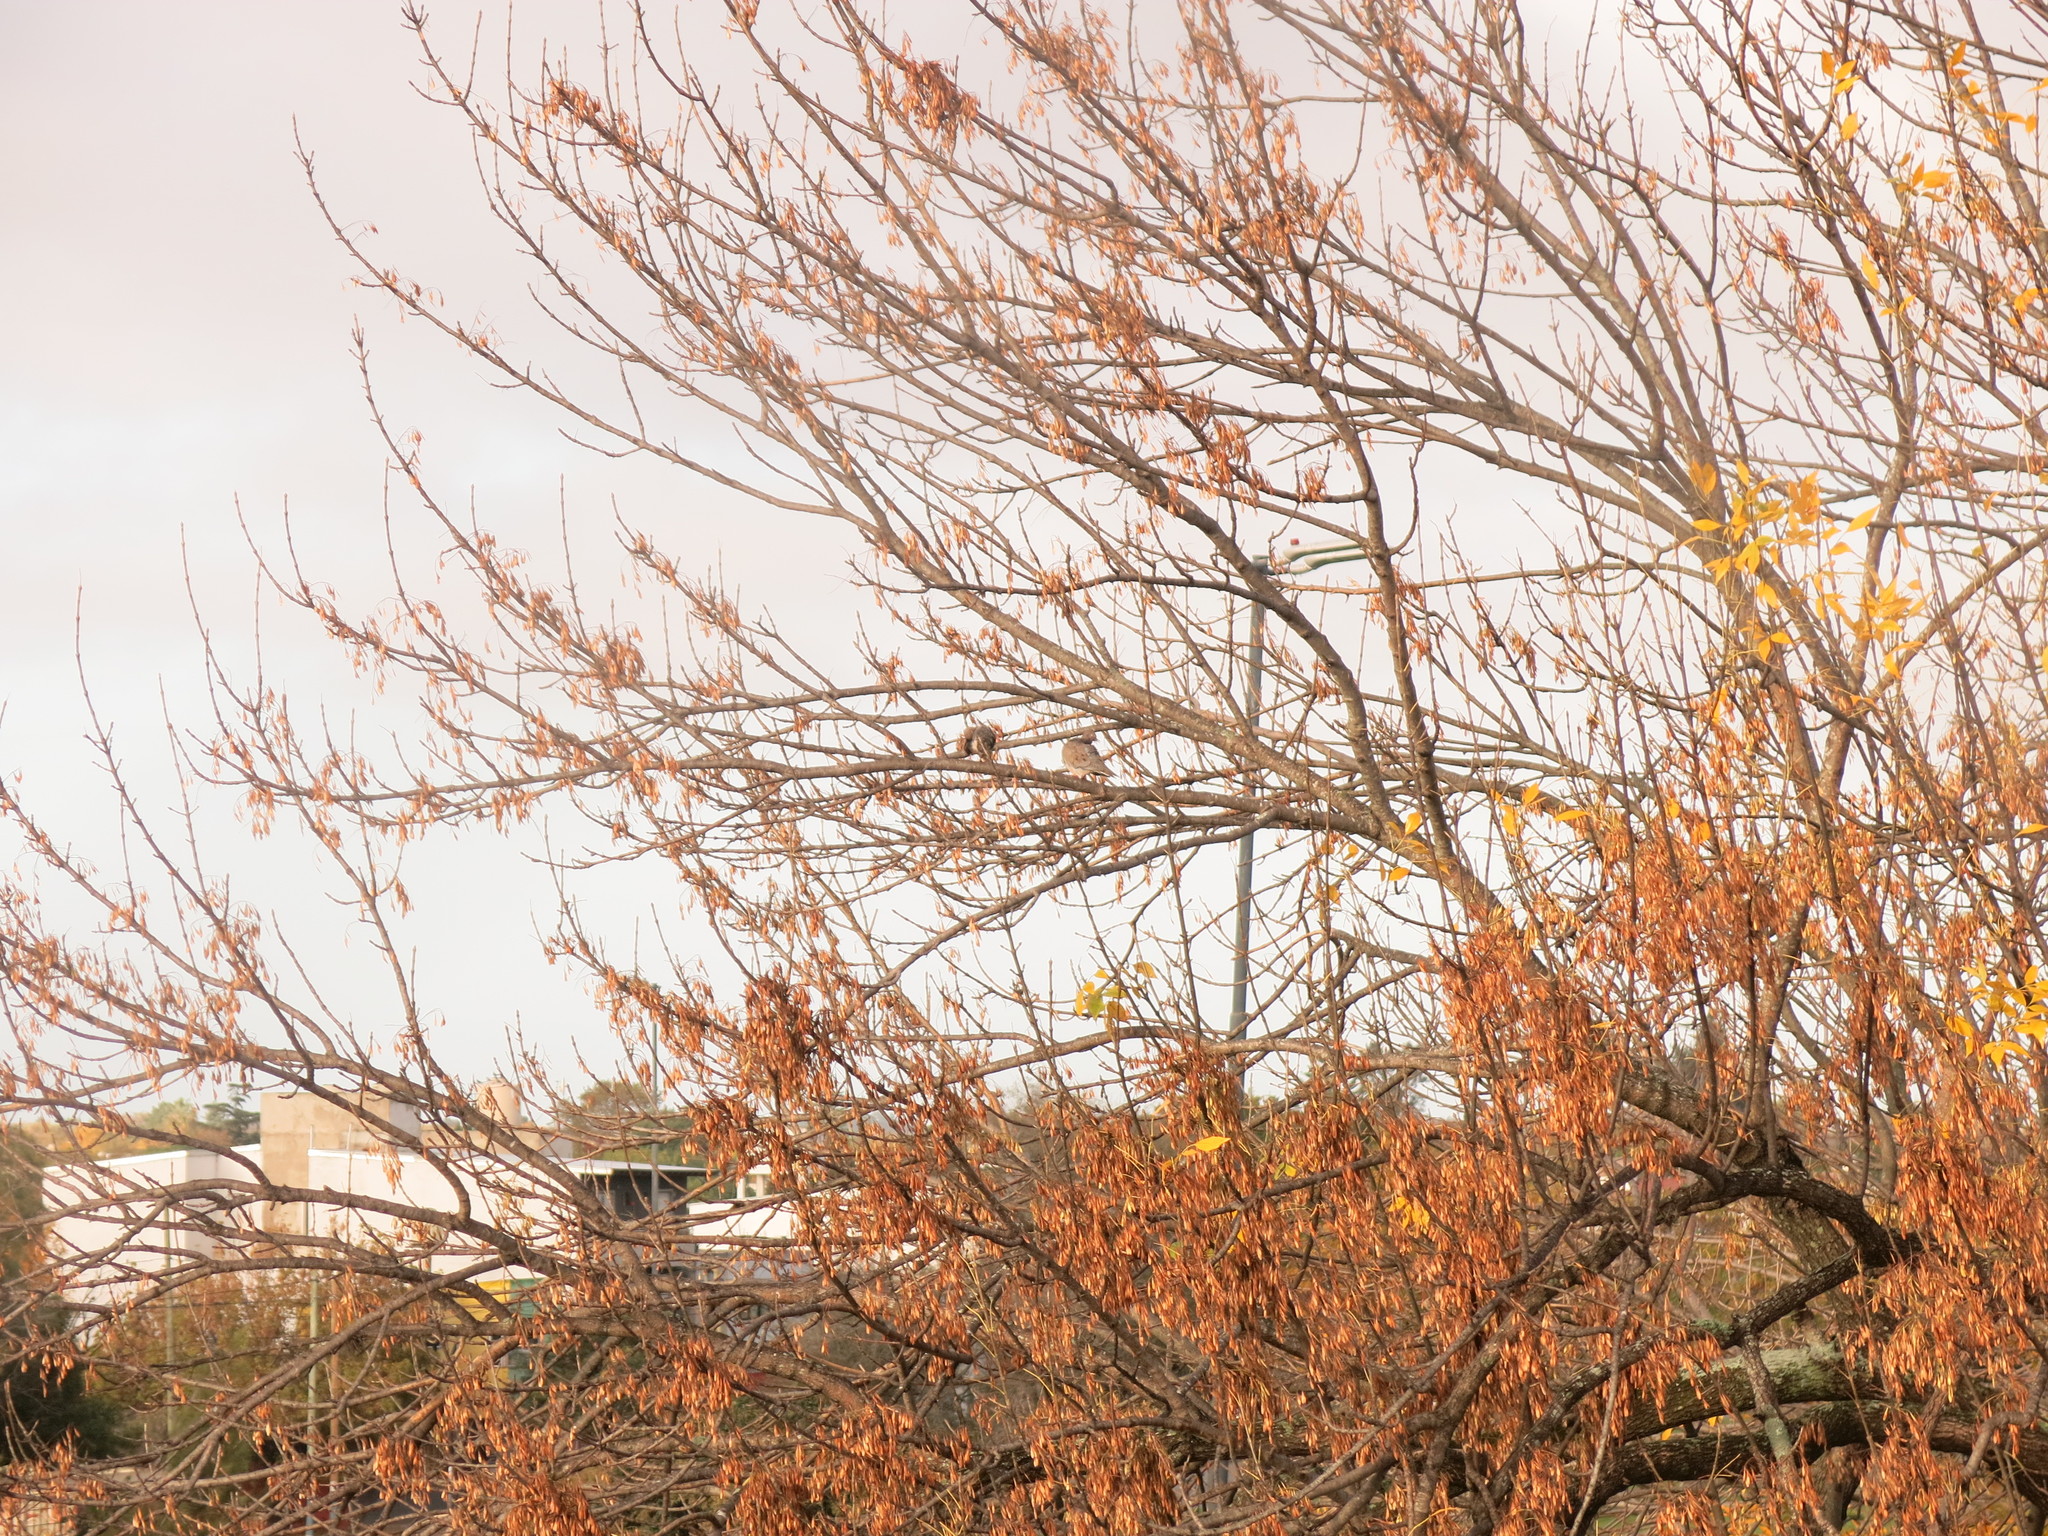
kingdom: Animalia
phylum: Chordata
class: Aves
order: Columbiformes
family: Columbidae
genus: Zenaida
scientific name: Zenaida auriculata
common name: Eared dove
